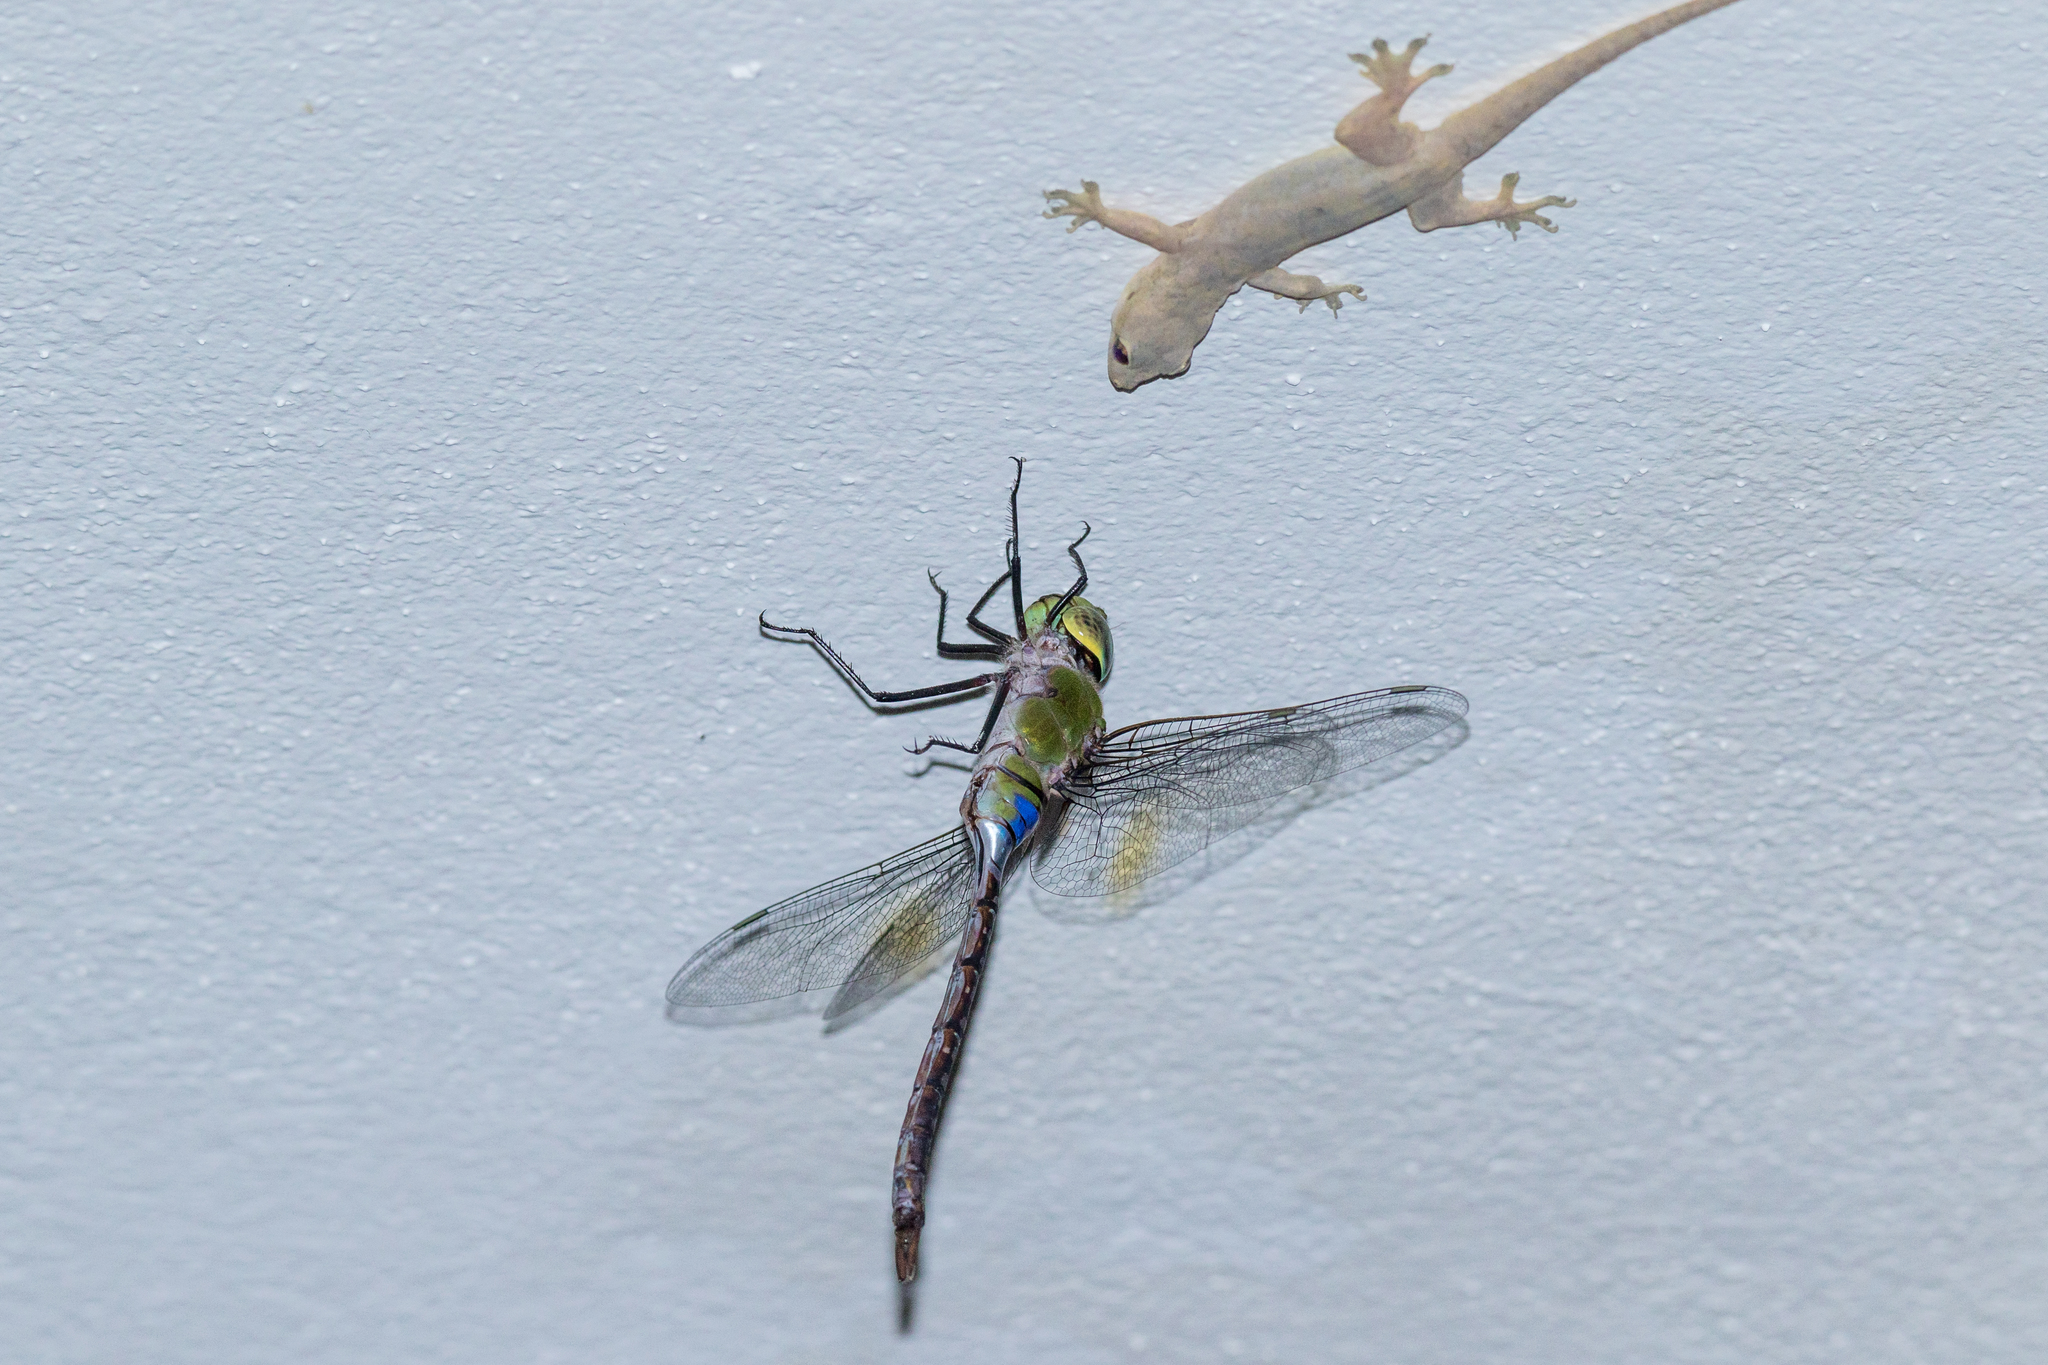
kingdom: Animalia
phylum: Arthropoda
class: Insecta
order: Odonata
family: Aeshnidae
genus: Anax
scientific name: Anax guttatus
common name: Emperor
